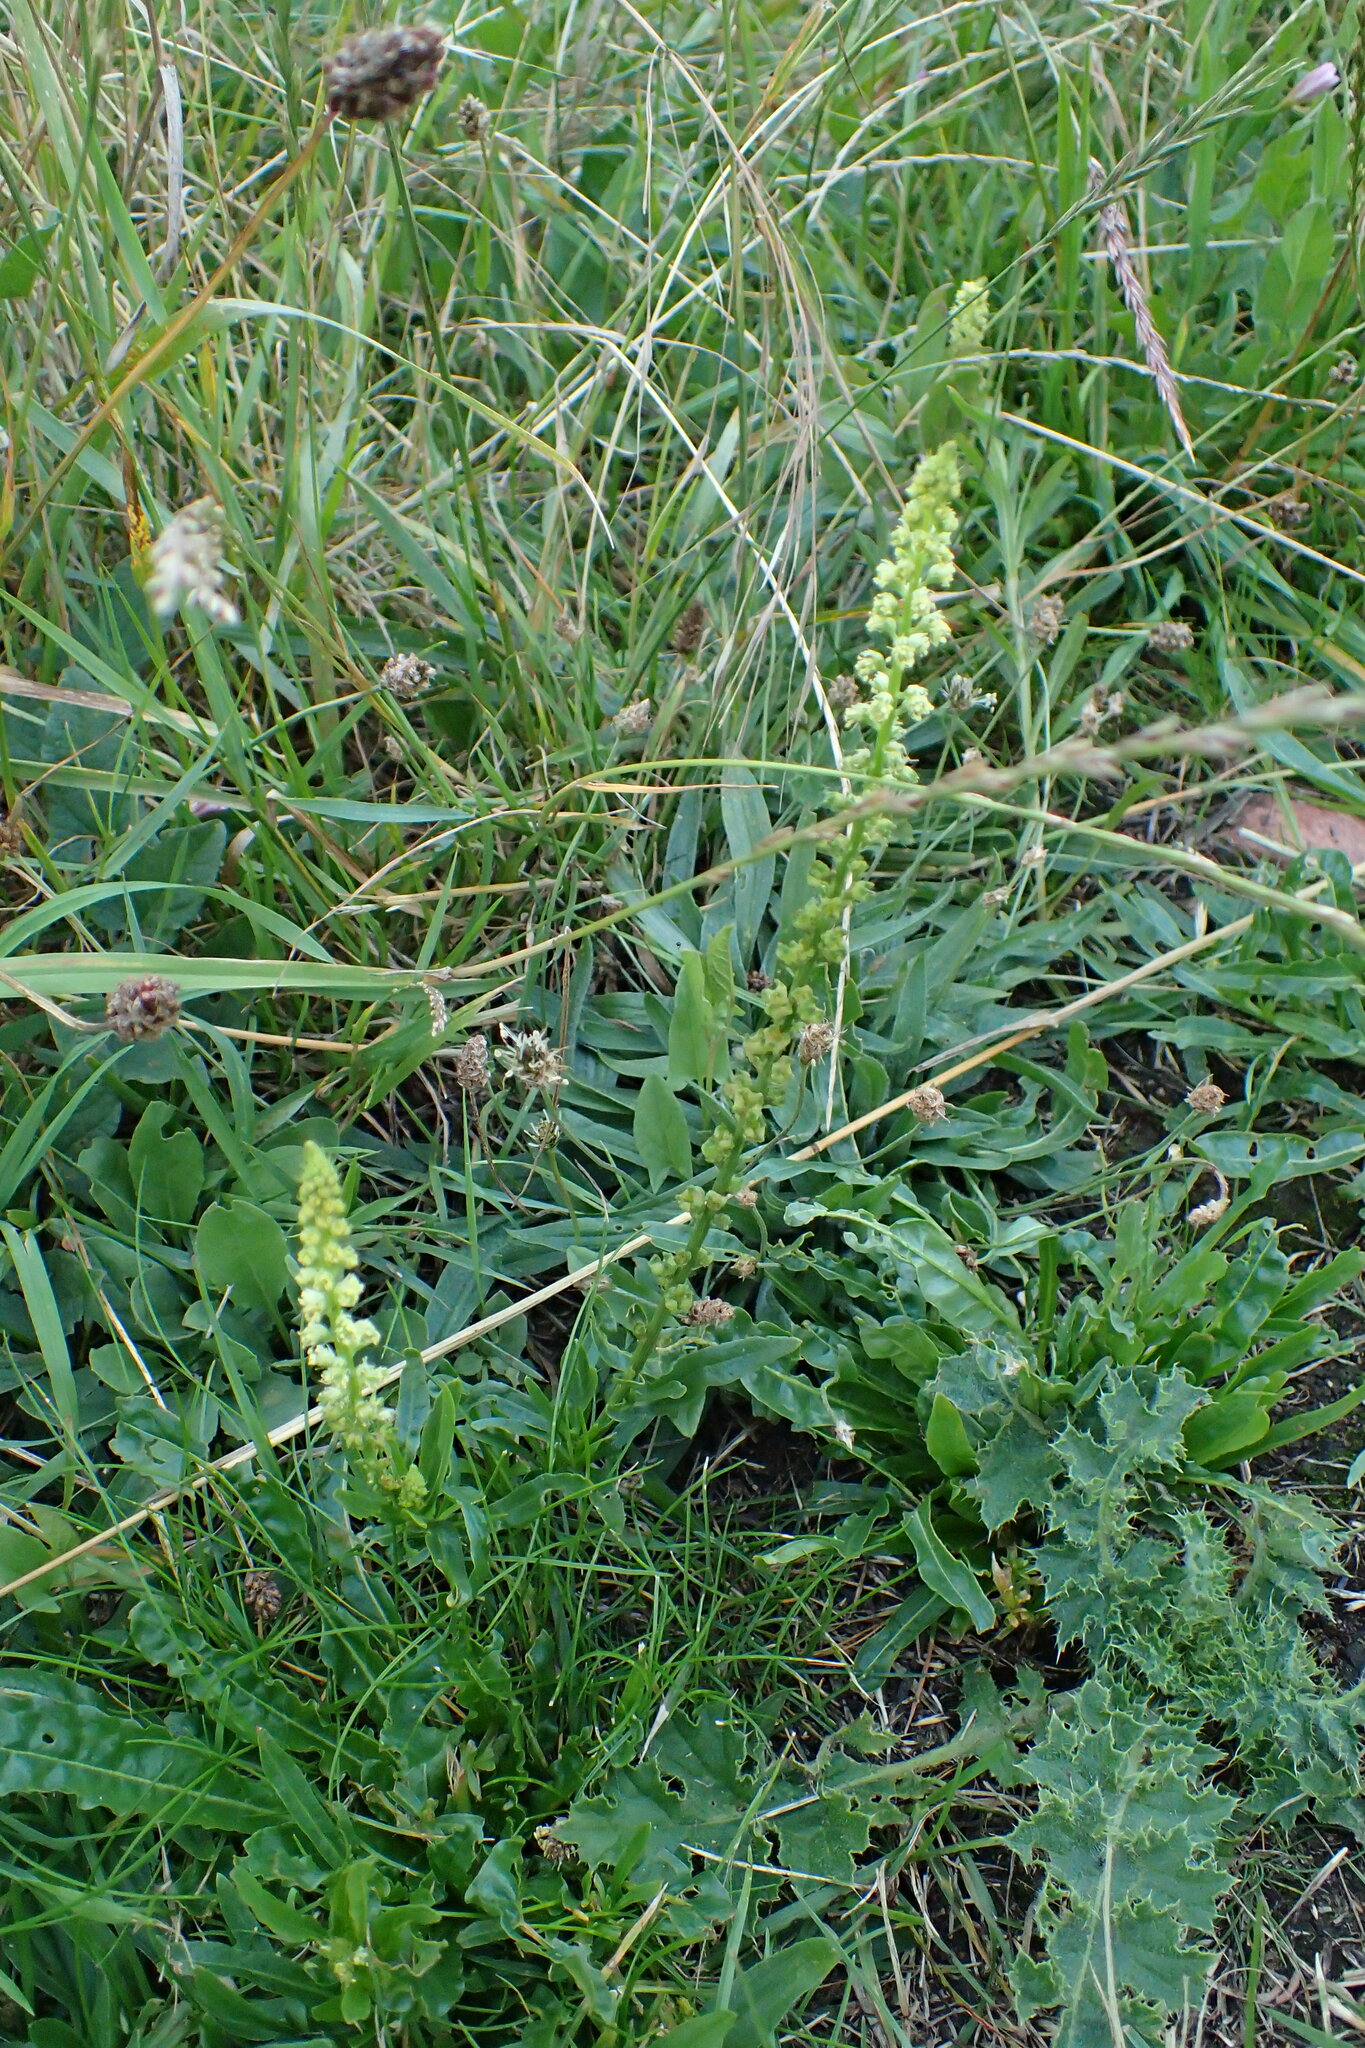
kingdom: Plantae
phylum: Tracheophyta
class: Magnoliopsida
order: Brassicales
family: Resedaceae
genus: Reseda
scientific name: Reseda luteola
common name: Weld
